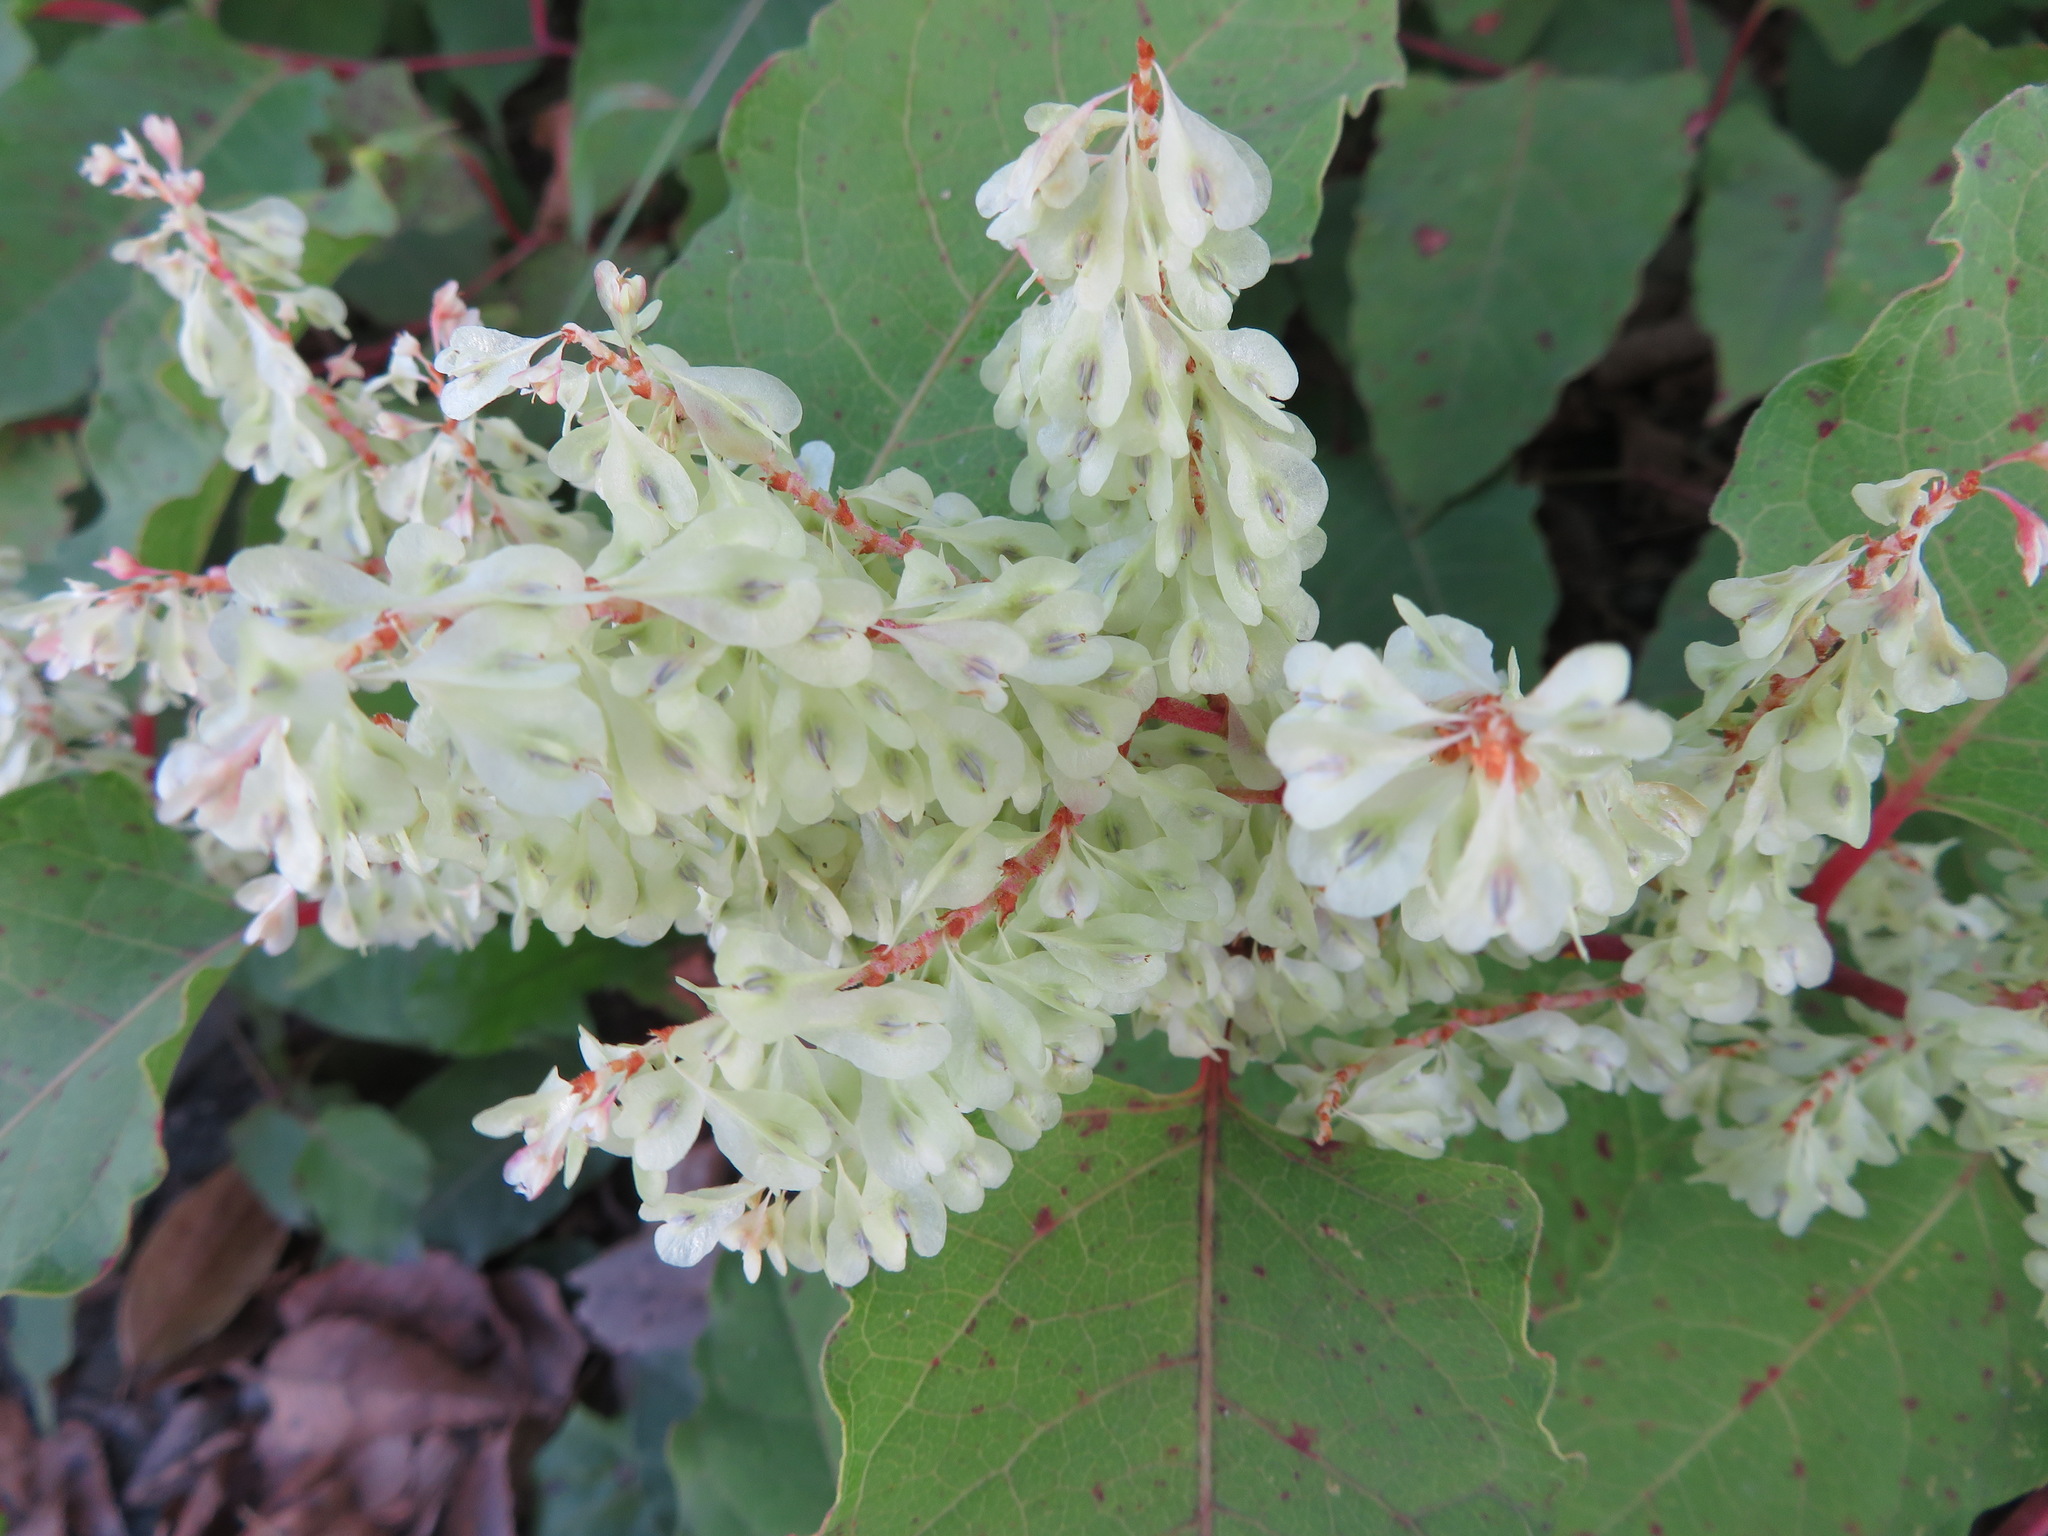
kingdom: Plantae
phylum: Tracheophyta
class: Magnoliopsida
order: Caryophyllales
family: Polygonaceae
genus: Reynoutria
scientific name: Reynoutria japonica
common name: Japanese knotweed
